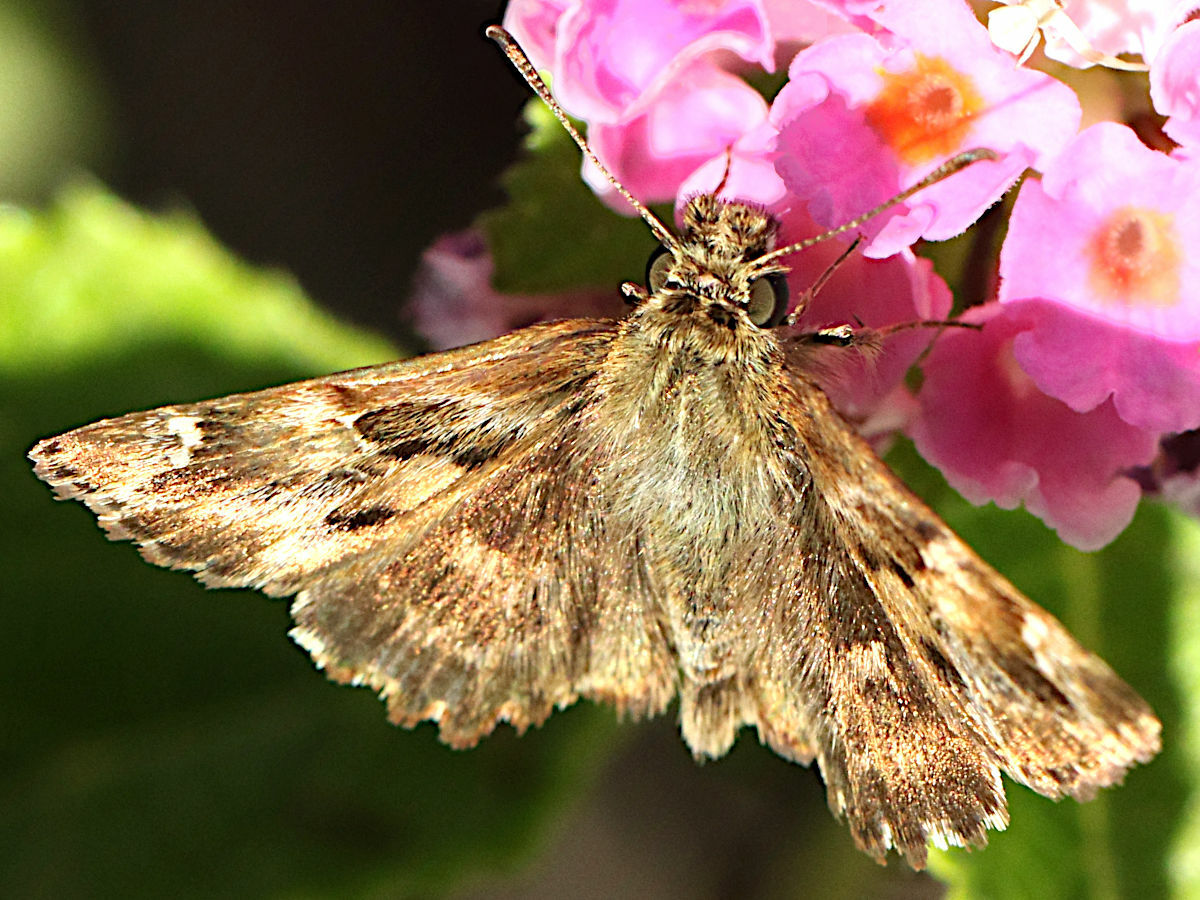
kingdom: Animalia
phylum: Arthropoda
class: Insecta
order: Lepidoptera
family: Hesperiidae
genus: Carcharodus
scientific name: Carcharodus alceae
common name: Mallow skipper
